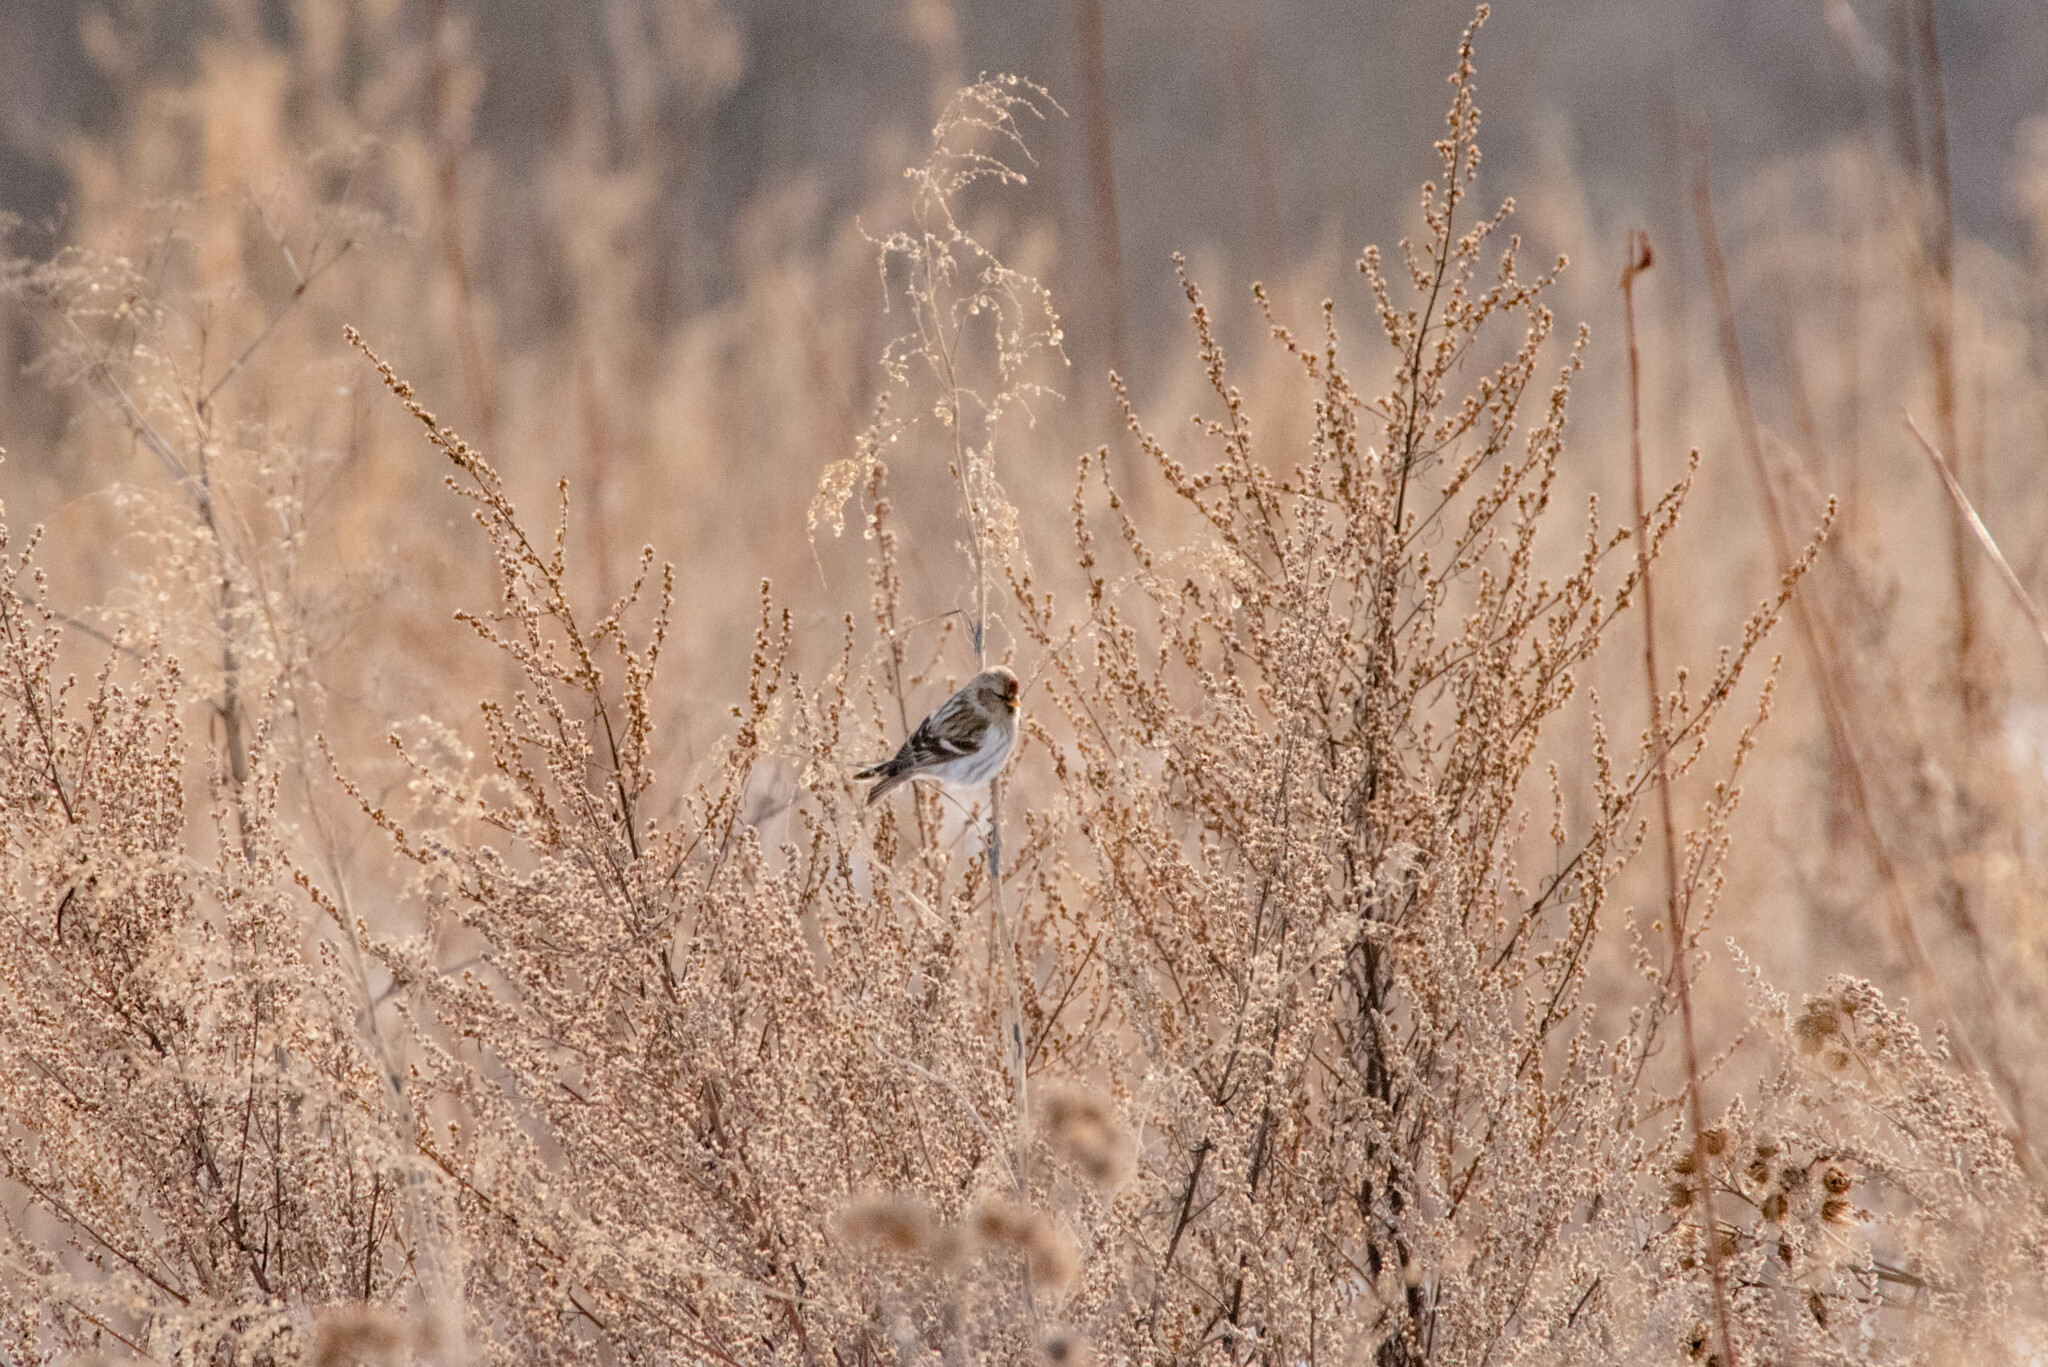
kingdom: Animalia
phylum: Chordata
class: Aves
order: Passeriformes
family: Fringillidae
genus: Acanthis
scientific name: Acanthis flammea
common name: Common redpoll
